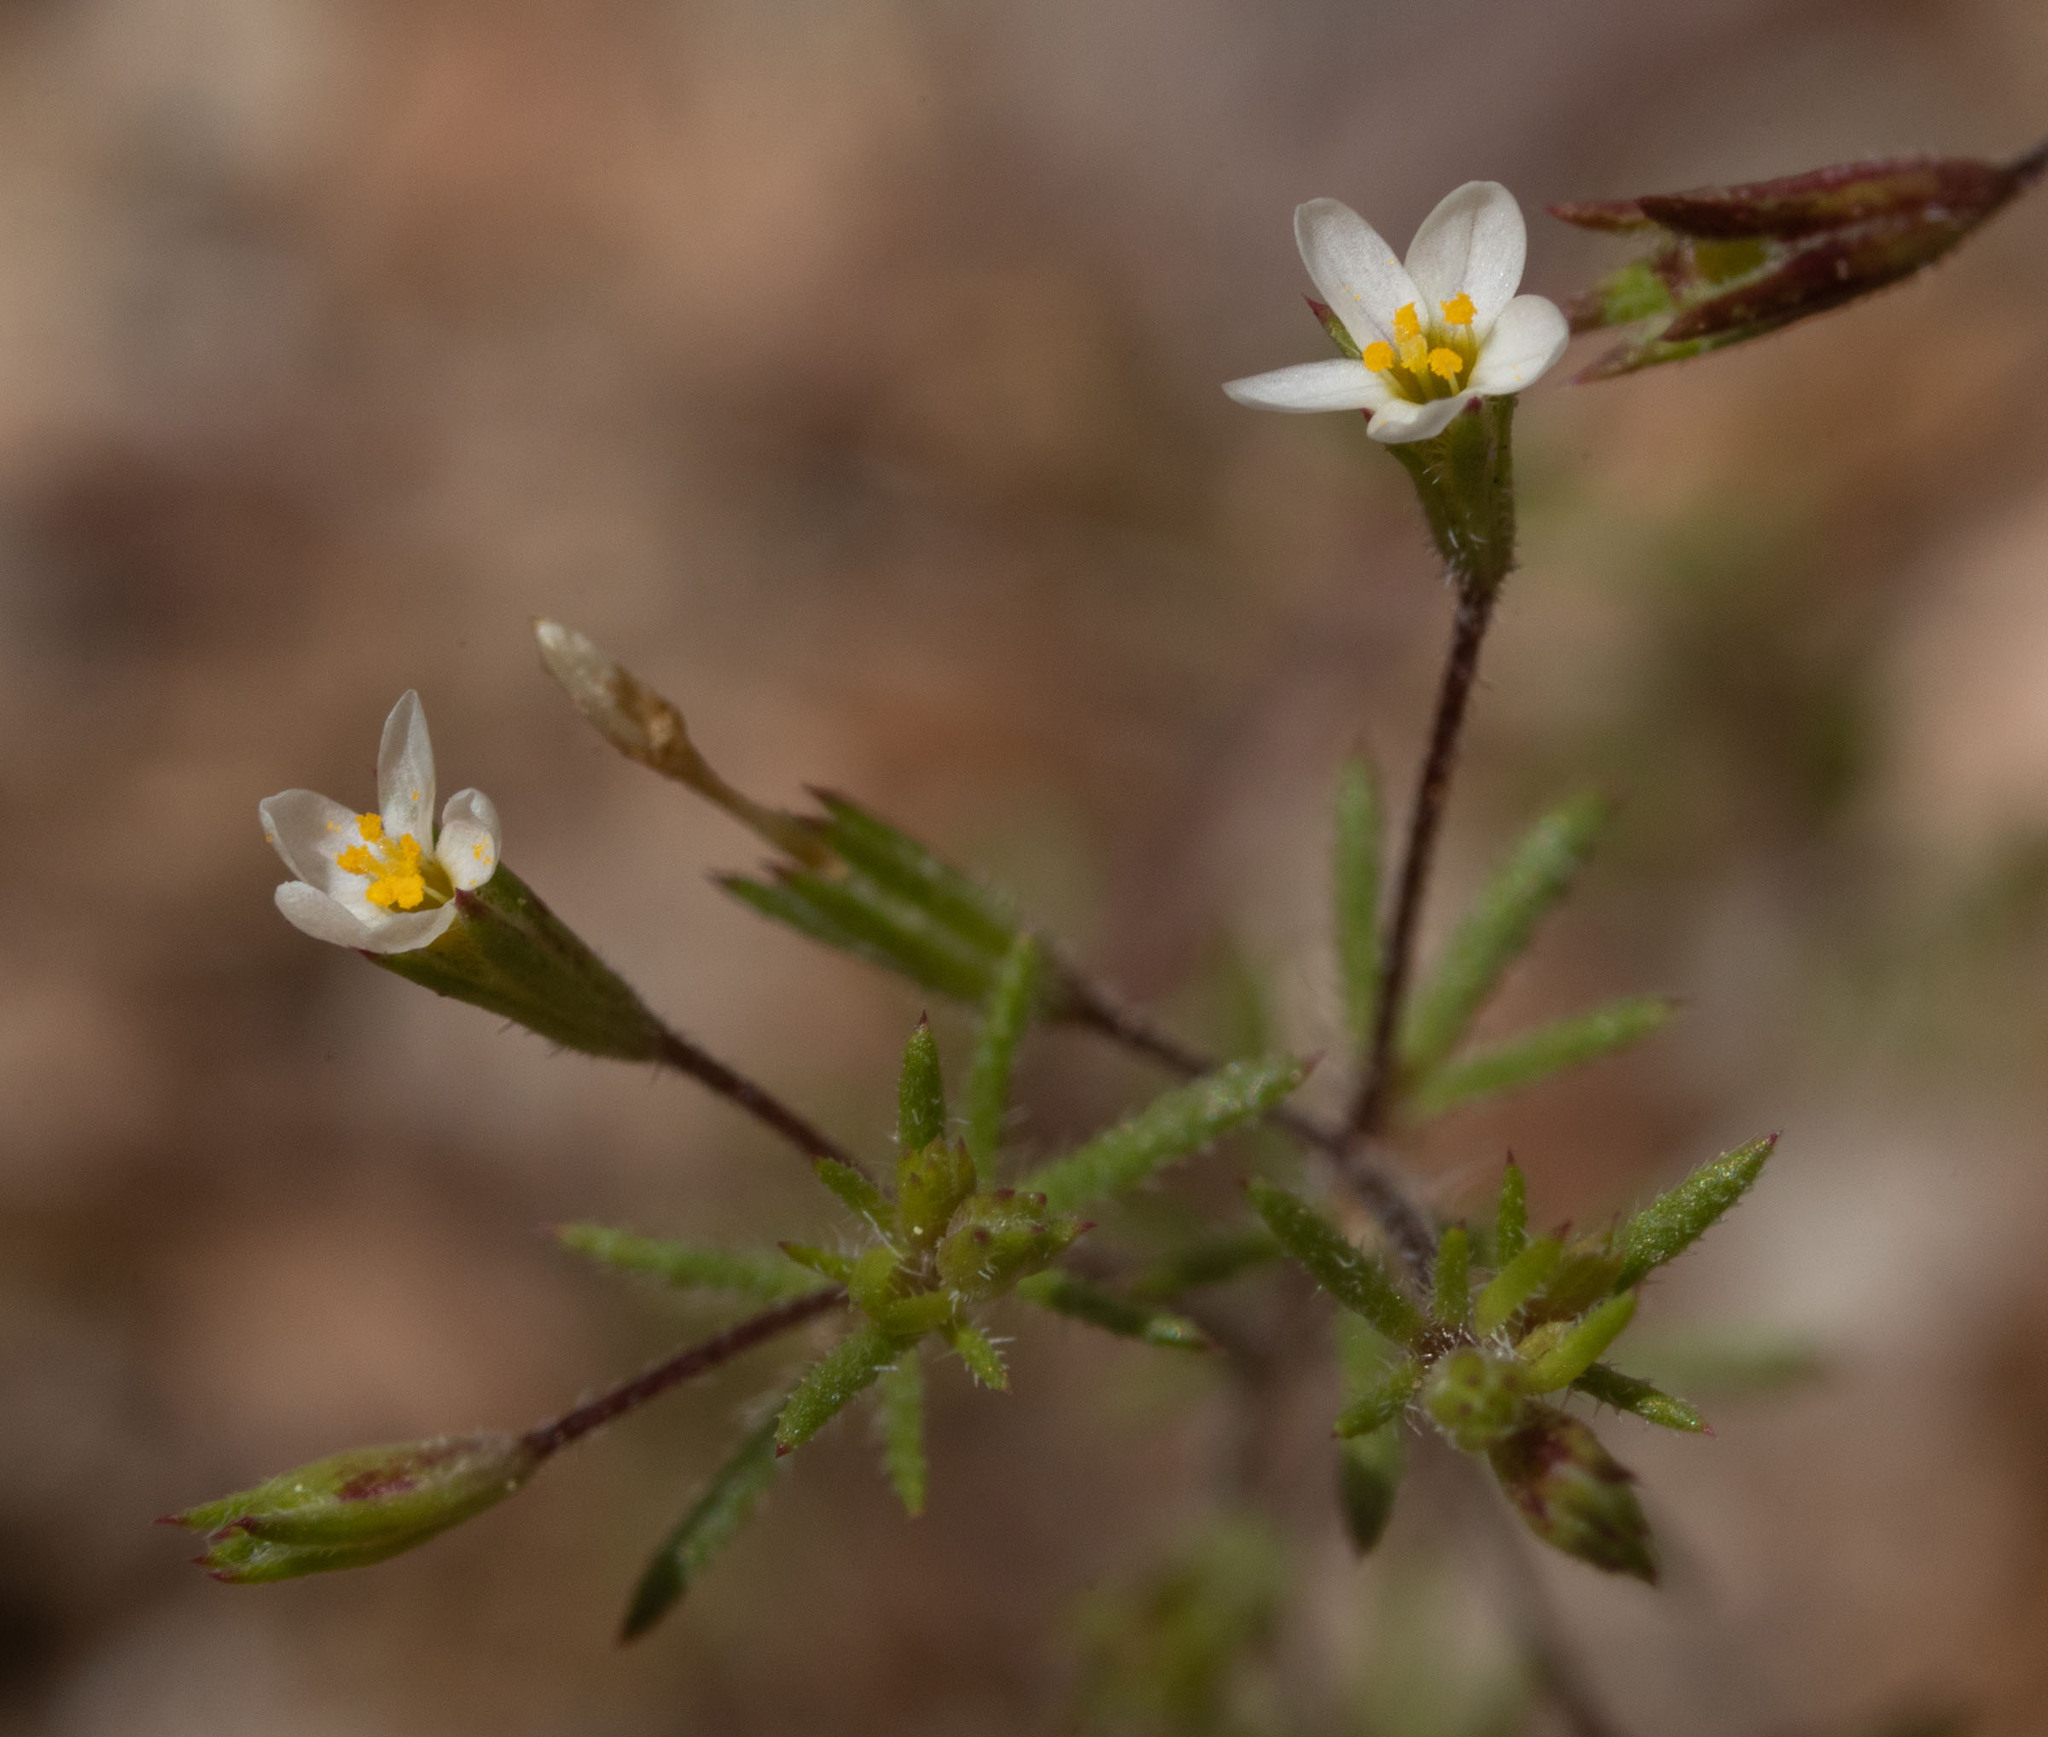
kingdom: Plantae
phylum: Tracheophyta
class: Magnoliopsida
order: Ericales
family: Polemoniaceae
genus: Leptosiphon
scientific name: Leptosiphon pygmaeus
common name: Pygmy linanthus
